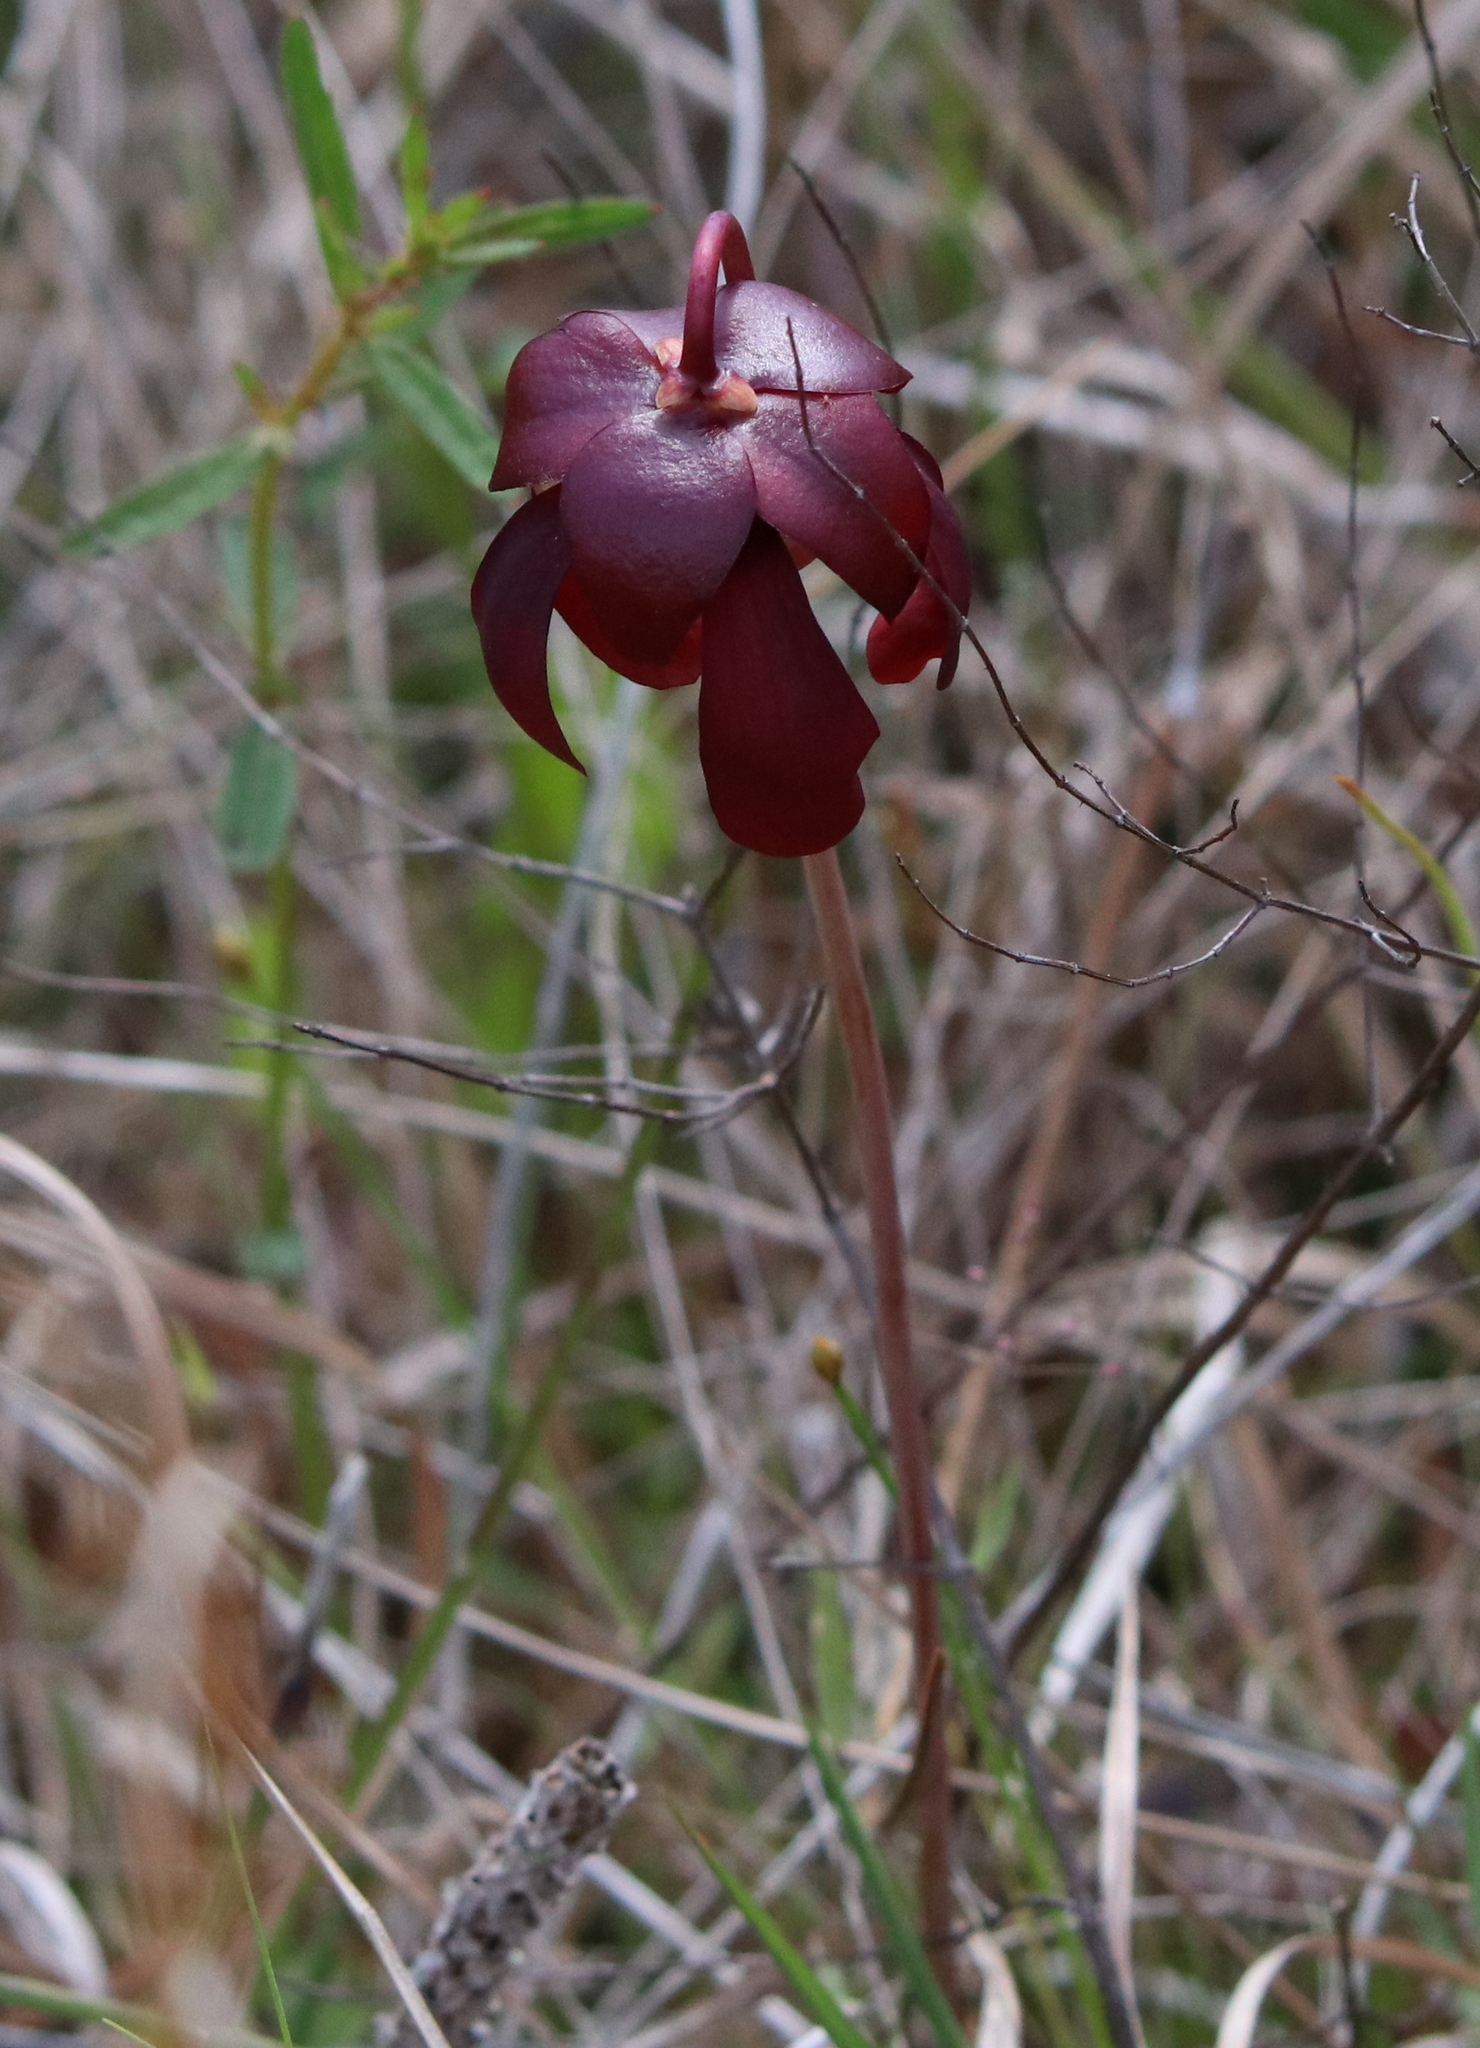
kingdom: Plantae
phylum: Tracheophyta
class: Magnoliopsida
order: Ericales
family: Sarraceniaceae
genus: Sarracenia
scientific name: Sarracenia psittacina
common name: Parrot pitcherplant
